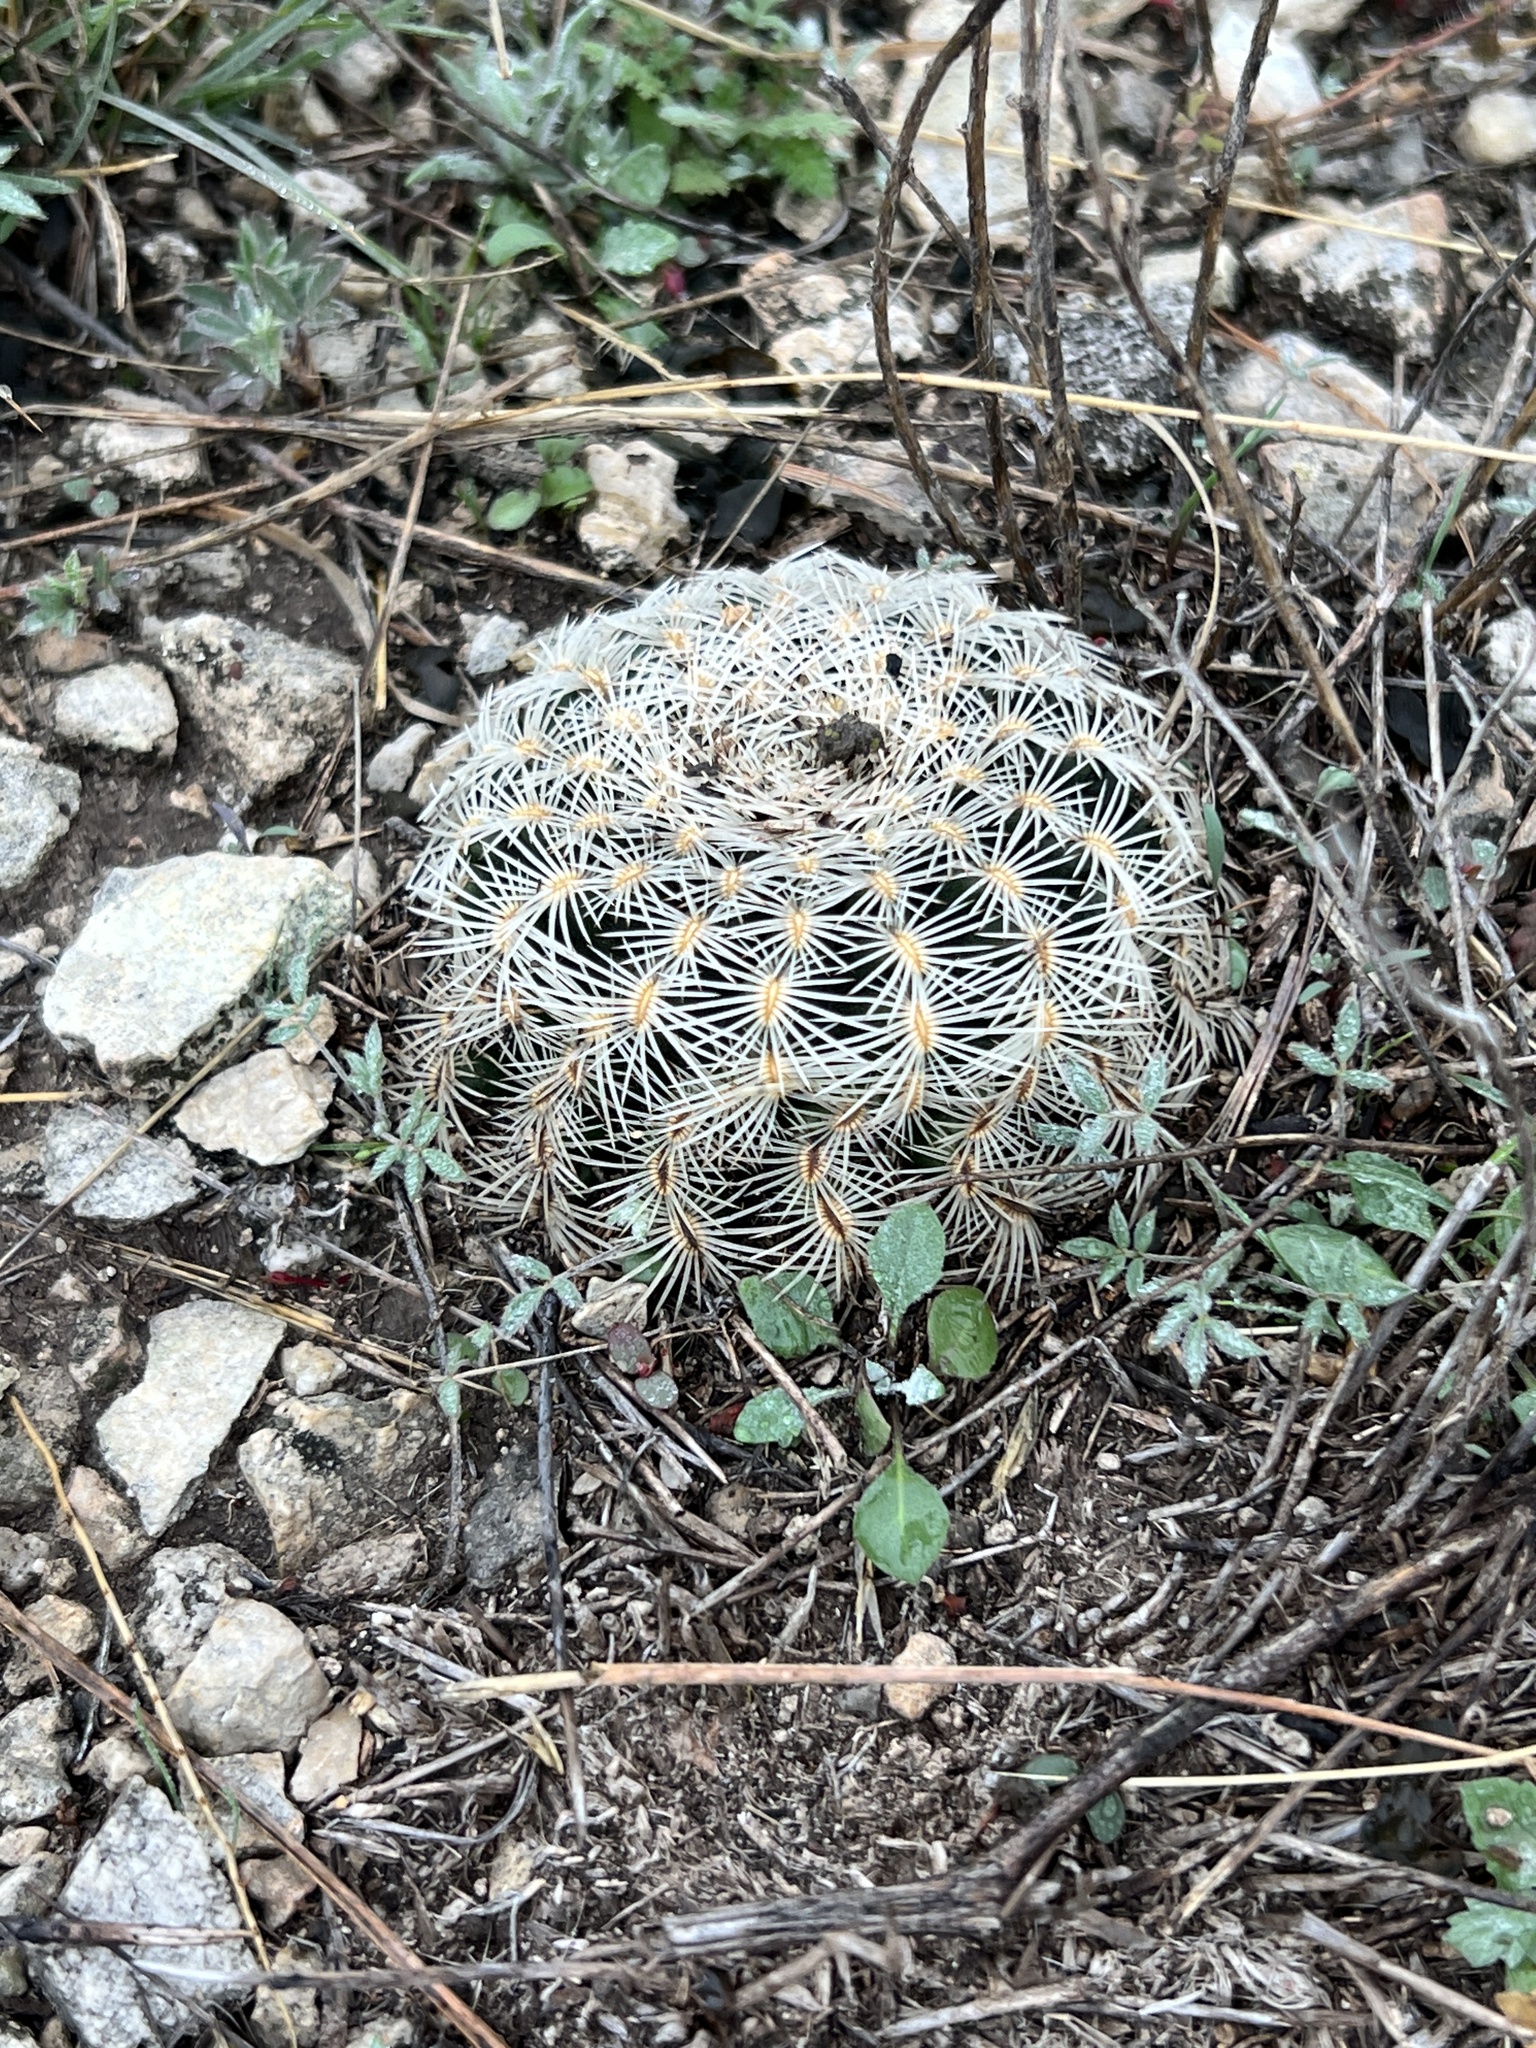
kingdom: Plantae
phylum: Tracheophyta
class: Magnoliopsida
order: Caryophyllales
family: Cactaceae
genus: Echinocereus
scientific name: Echinocereus reichenbachii
